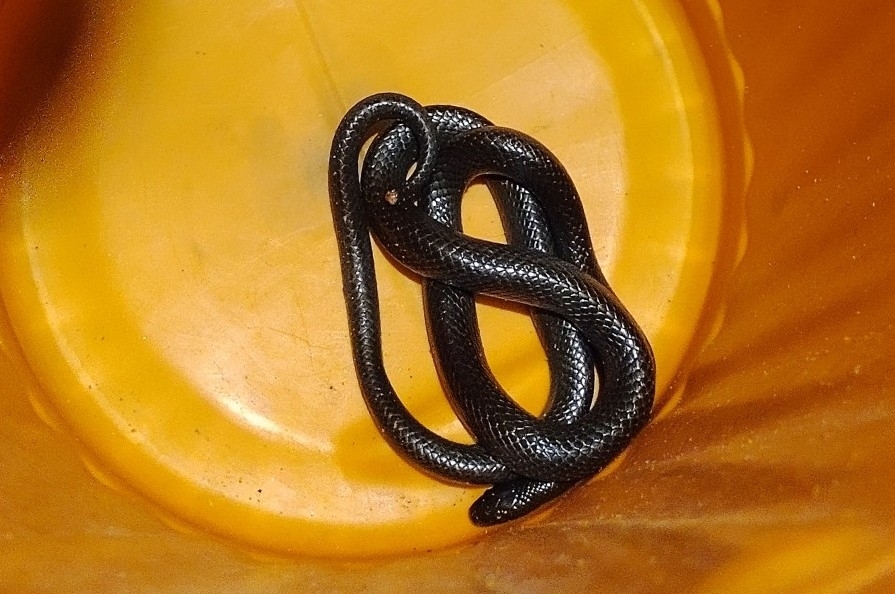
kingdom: Animalia
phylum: Chordata
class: Squamata
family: Colubridae
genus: Clelia
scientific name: Clelia equatoriana
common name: Equatorial mussurana
